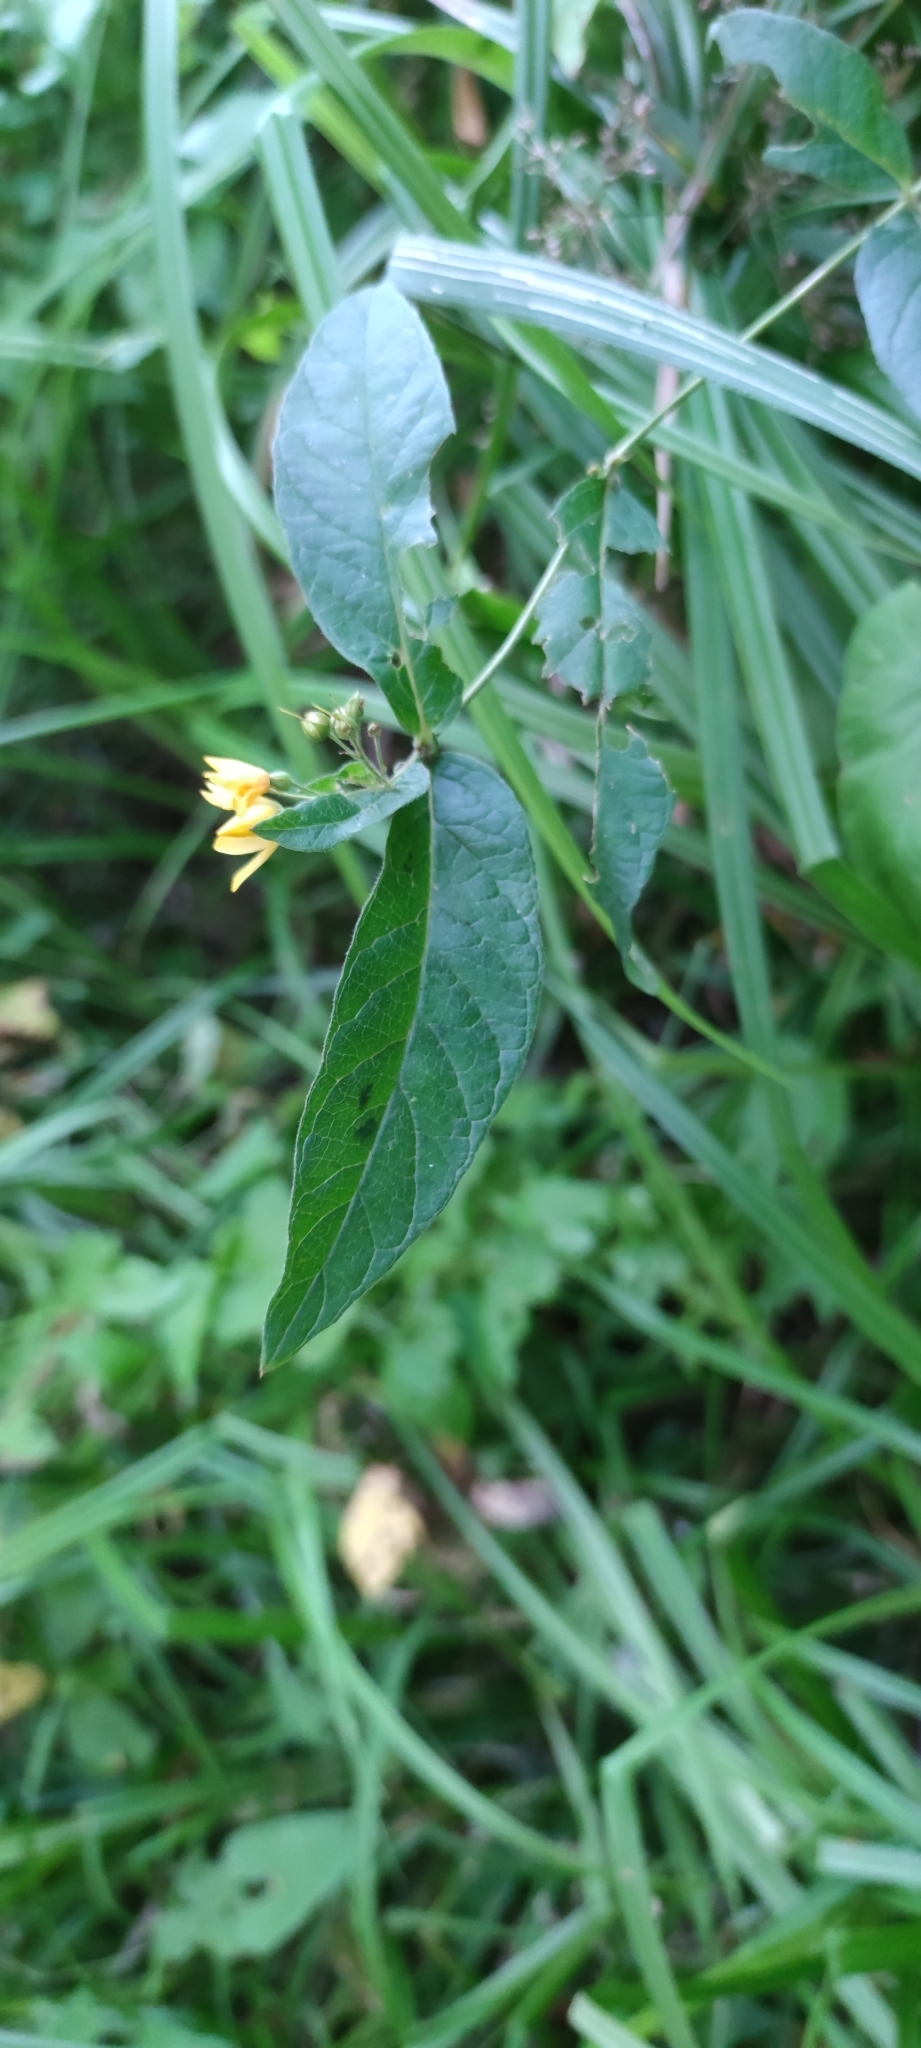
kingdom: Plantae
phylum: Tracheophyta
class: Magnoliopsida
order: Ericales
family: Primulaceae
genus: Lysimachia
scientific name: Lysimachia vulgaris
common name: Yellow loosestrife
